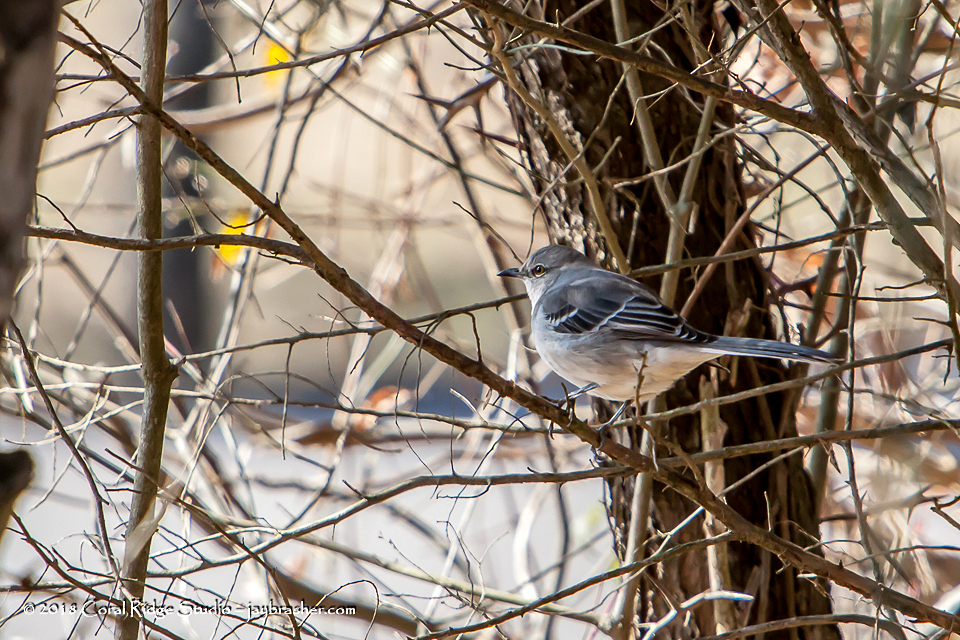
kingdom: Animalia
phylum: Chordata
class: Aves
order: Passeriformes
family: Mimidae
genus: Mimus
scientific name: Mimus polyglottos
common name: Northern mockingbird
